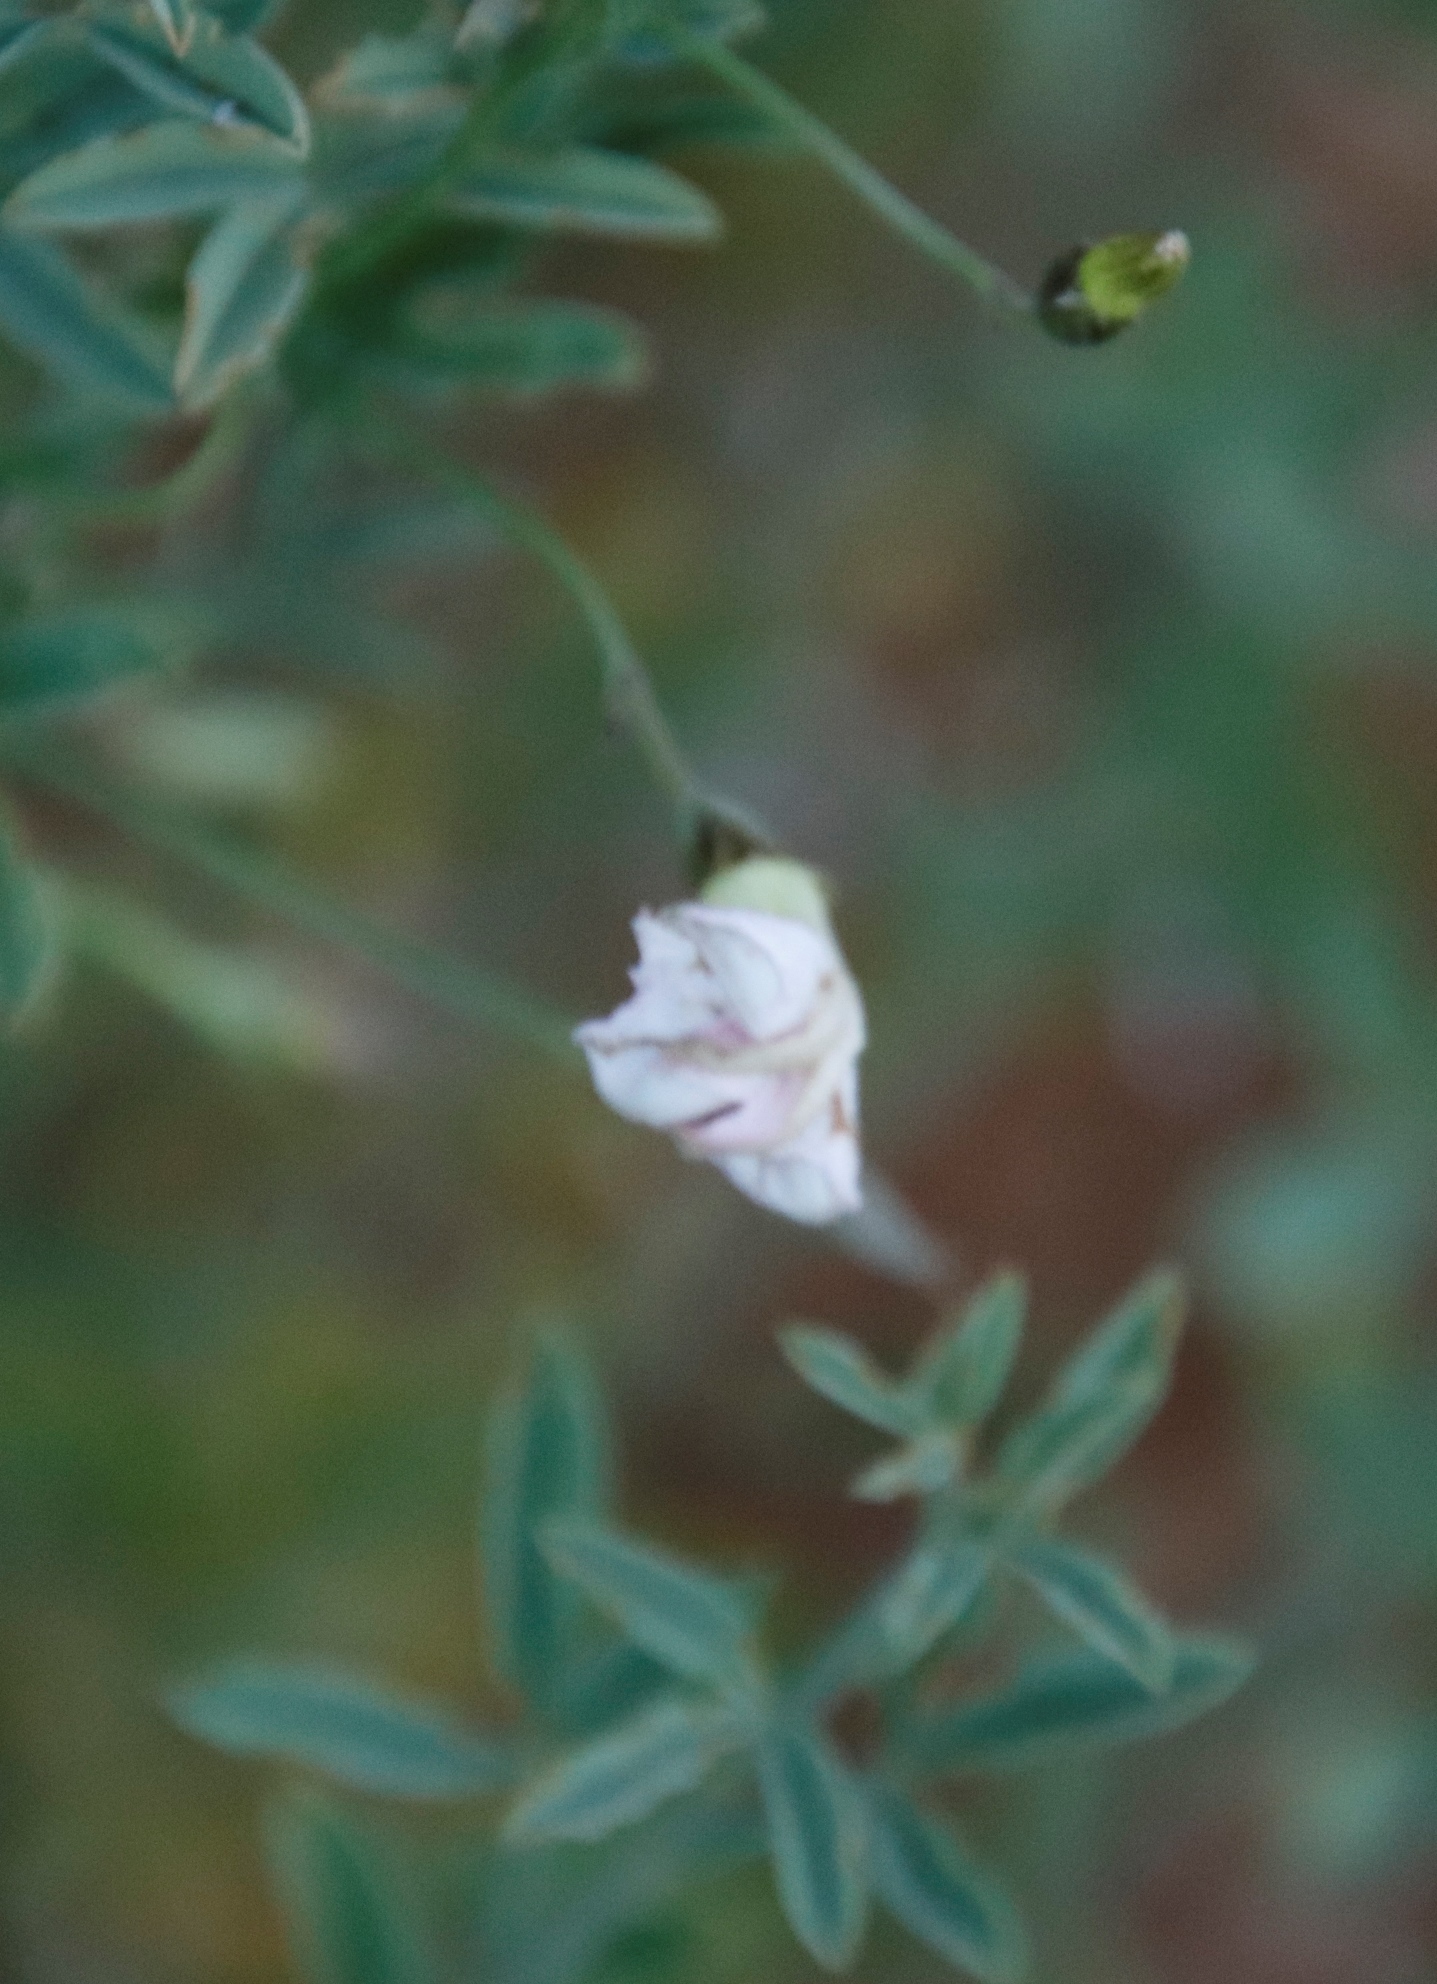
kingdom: Plantae
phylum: Tracheophyta
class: Magnoliopsida
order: Solanales
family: Convolvulaceae
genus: Convolvulus
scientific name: Convolvulus sagittatus
